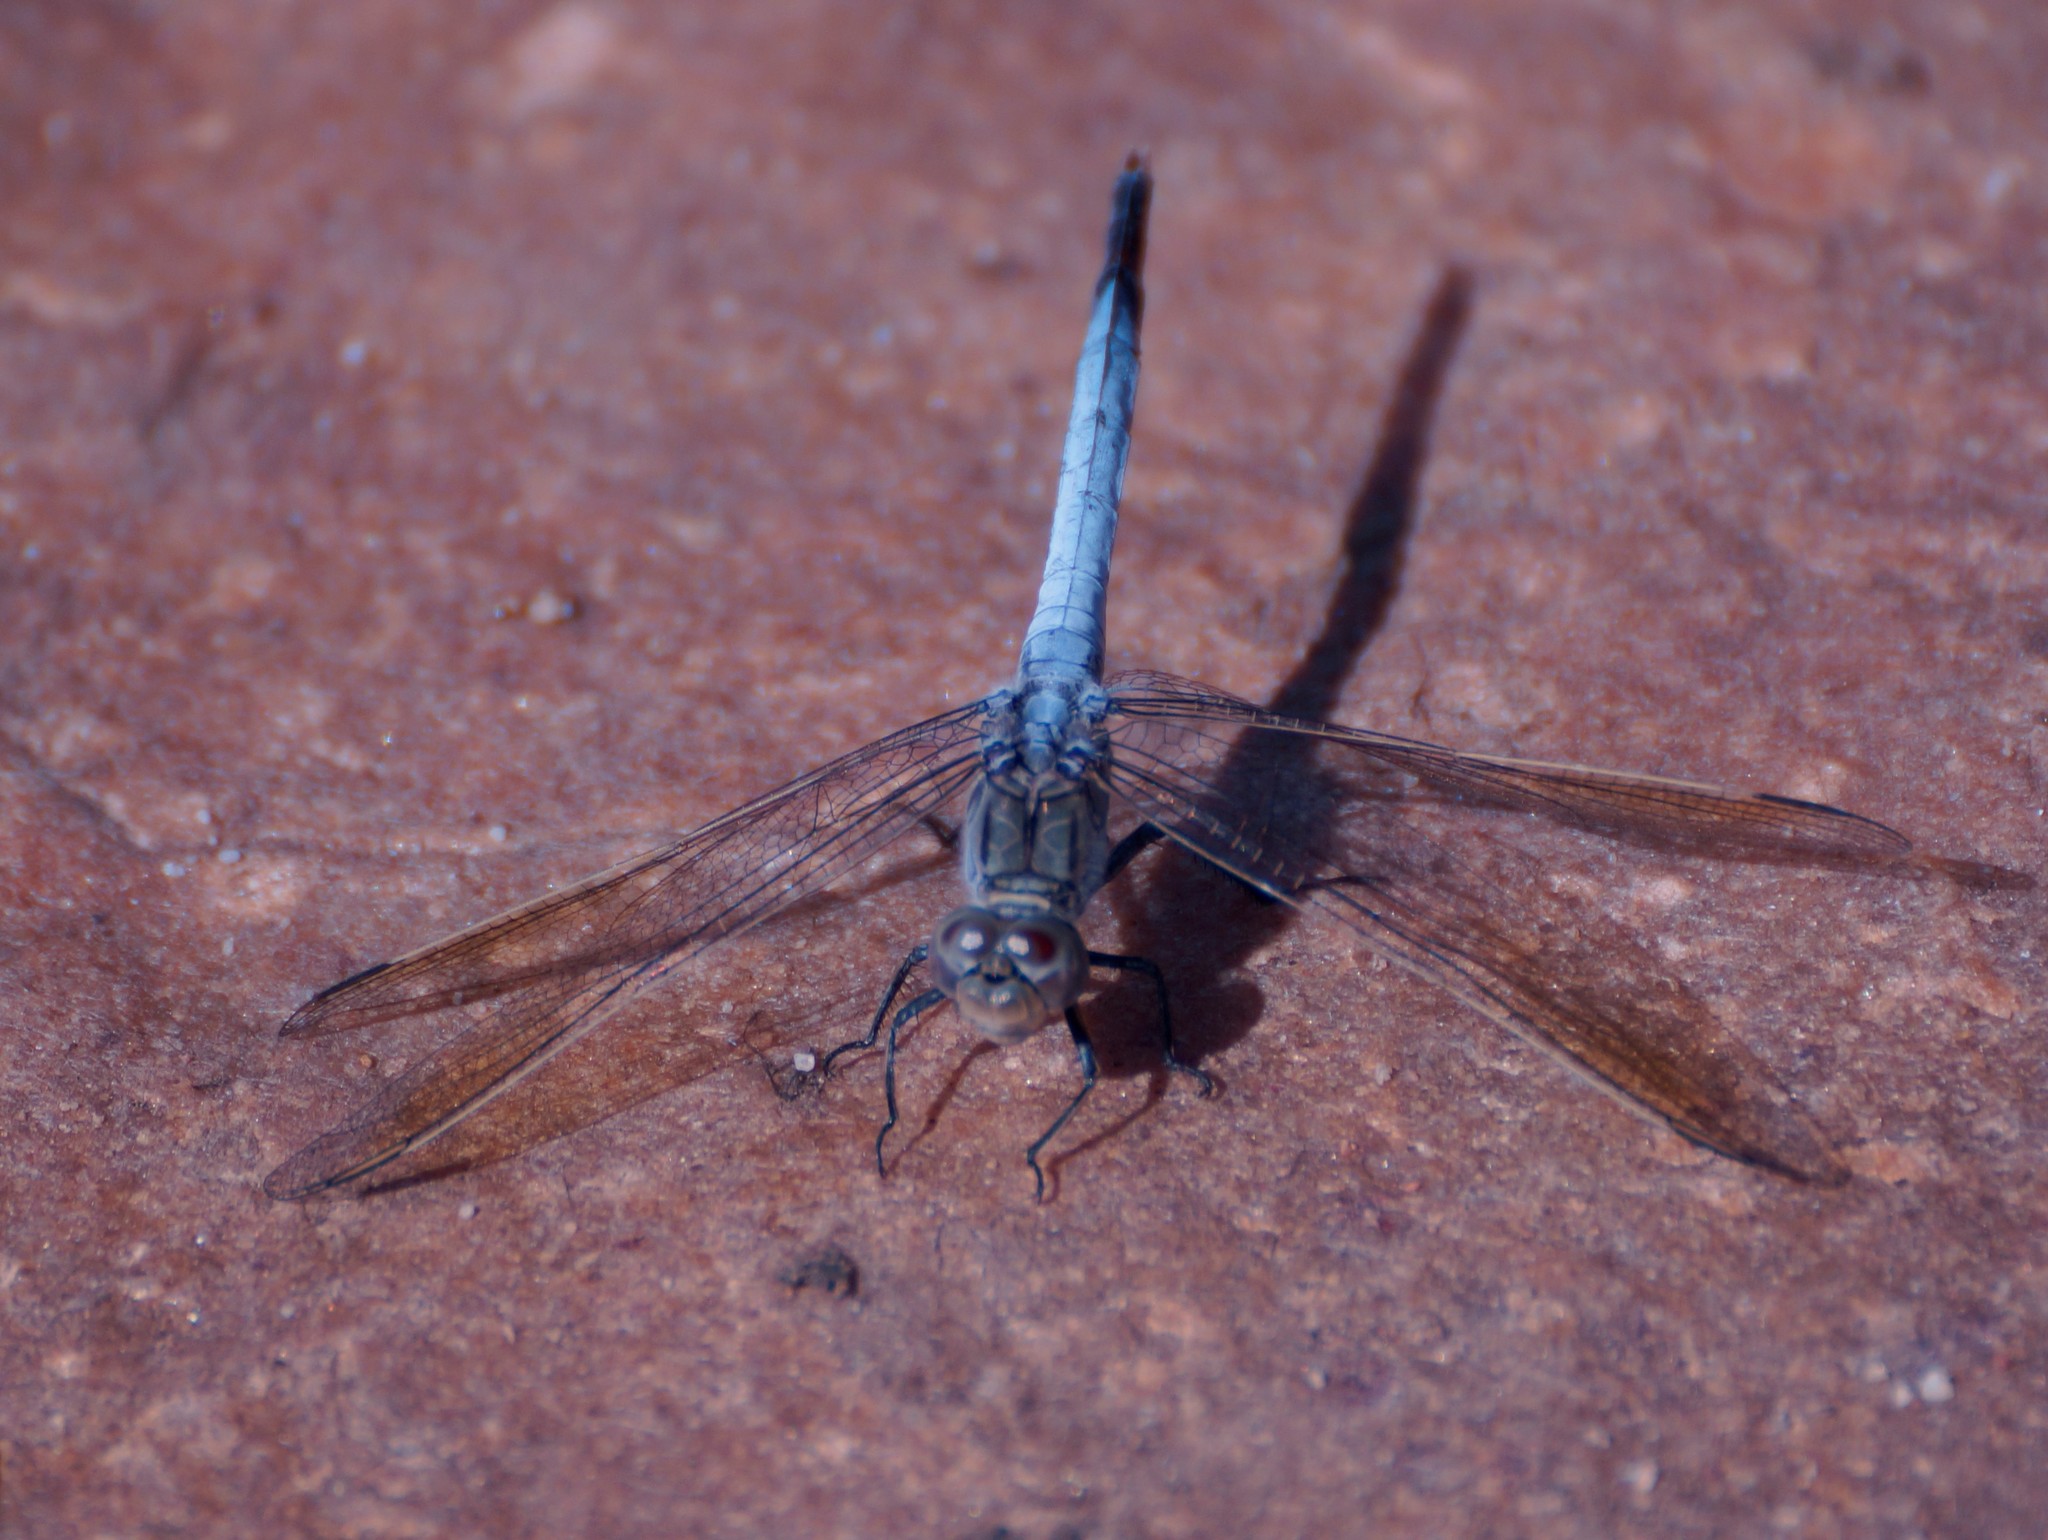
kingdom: Animalia
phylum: Arthropoda
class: Insecta
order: Odonata
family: Libellulidae
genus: Orthetrum
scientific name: Orthetrum caledonicum
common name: Blue skimmer
